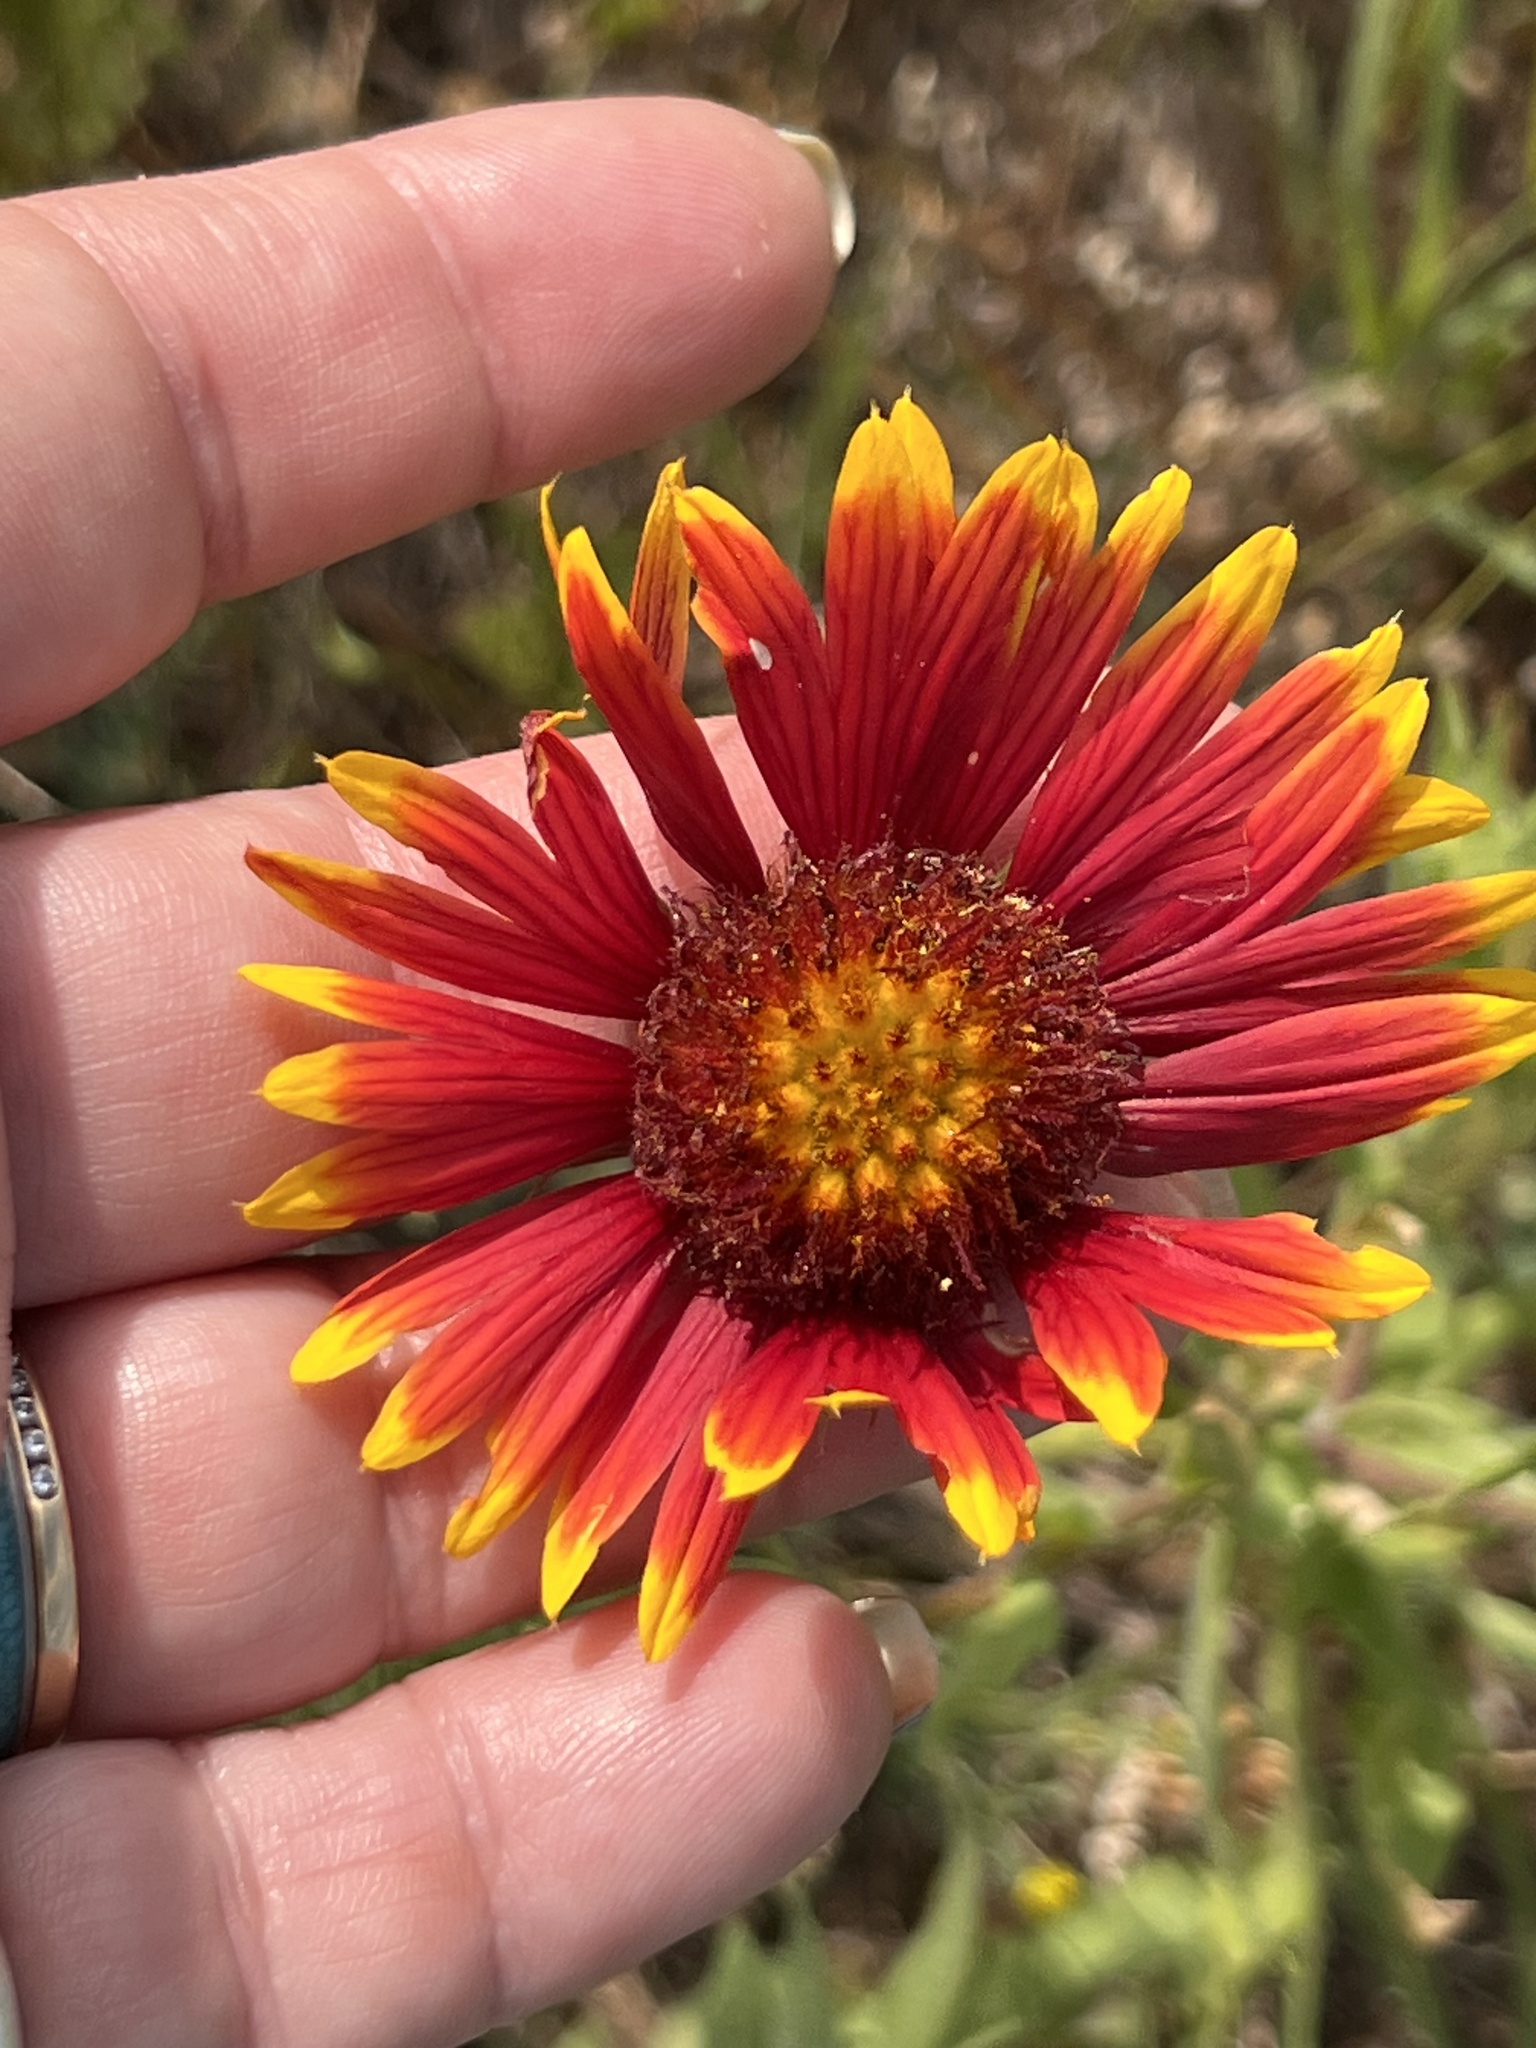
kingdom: Plantae
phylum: Tracheophyta
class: Magnoliopsida
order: Asterales
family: Asteraceae
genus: Gaillardia
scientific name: Gaillardia pulchella
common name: Firewheel
